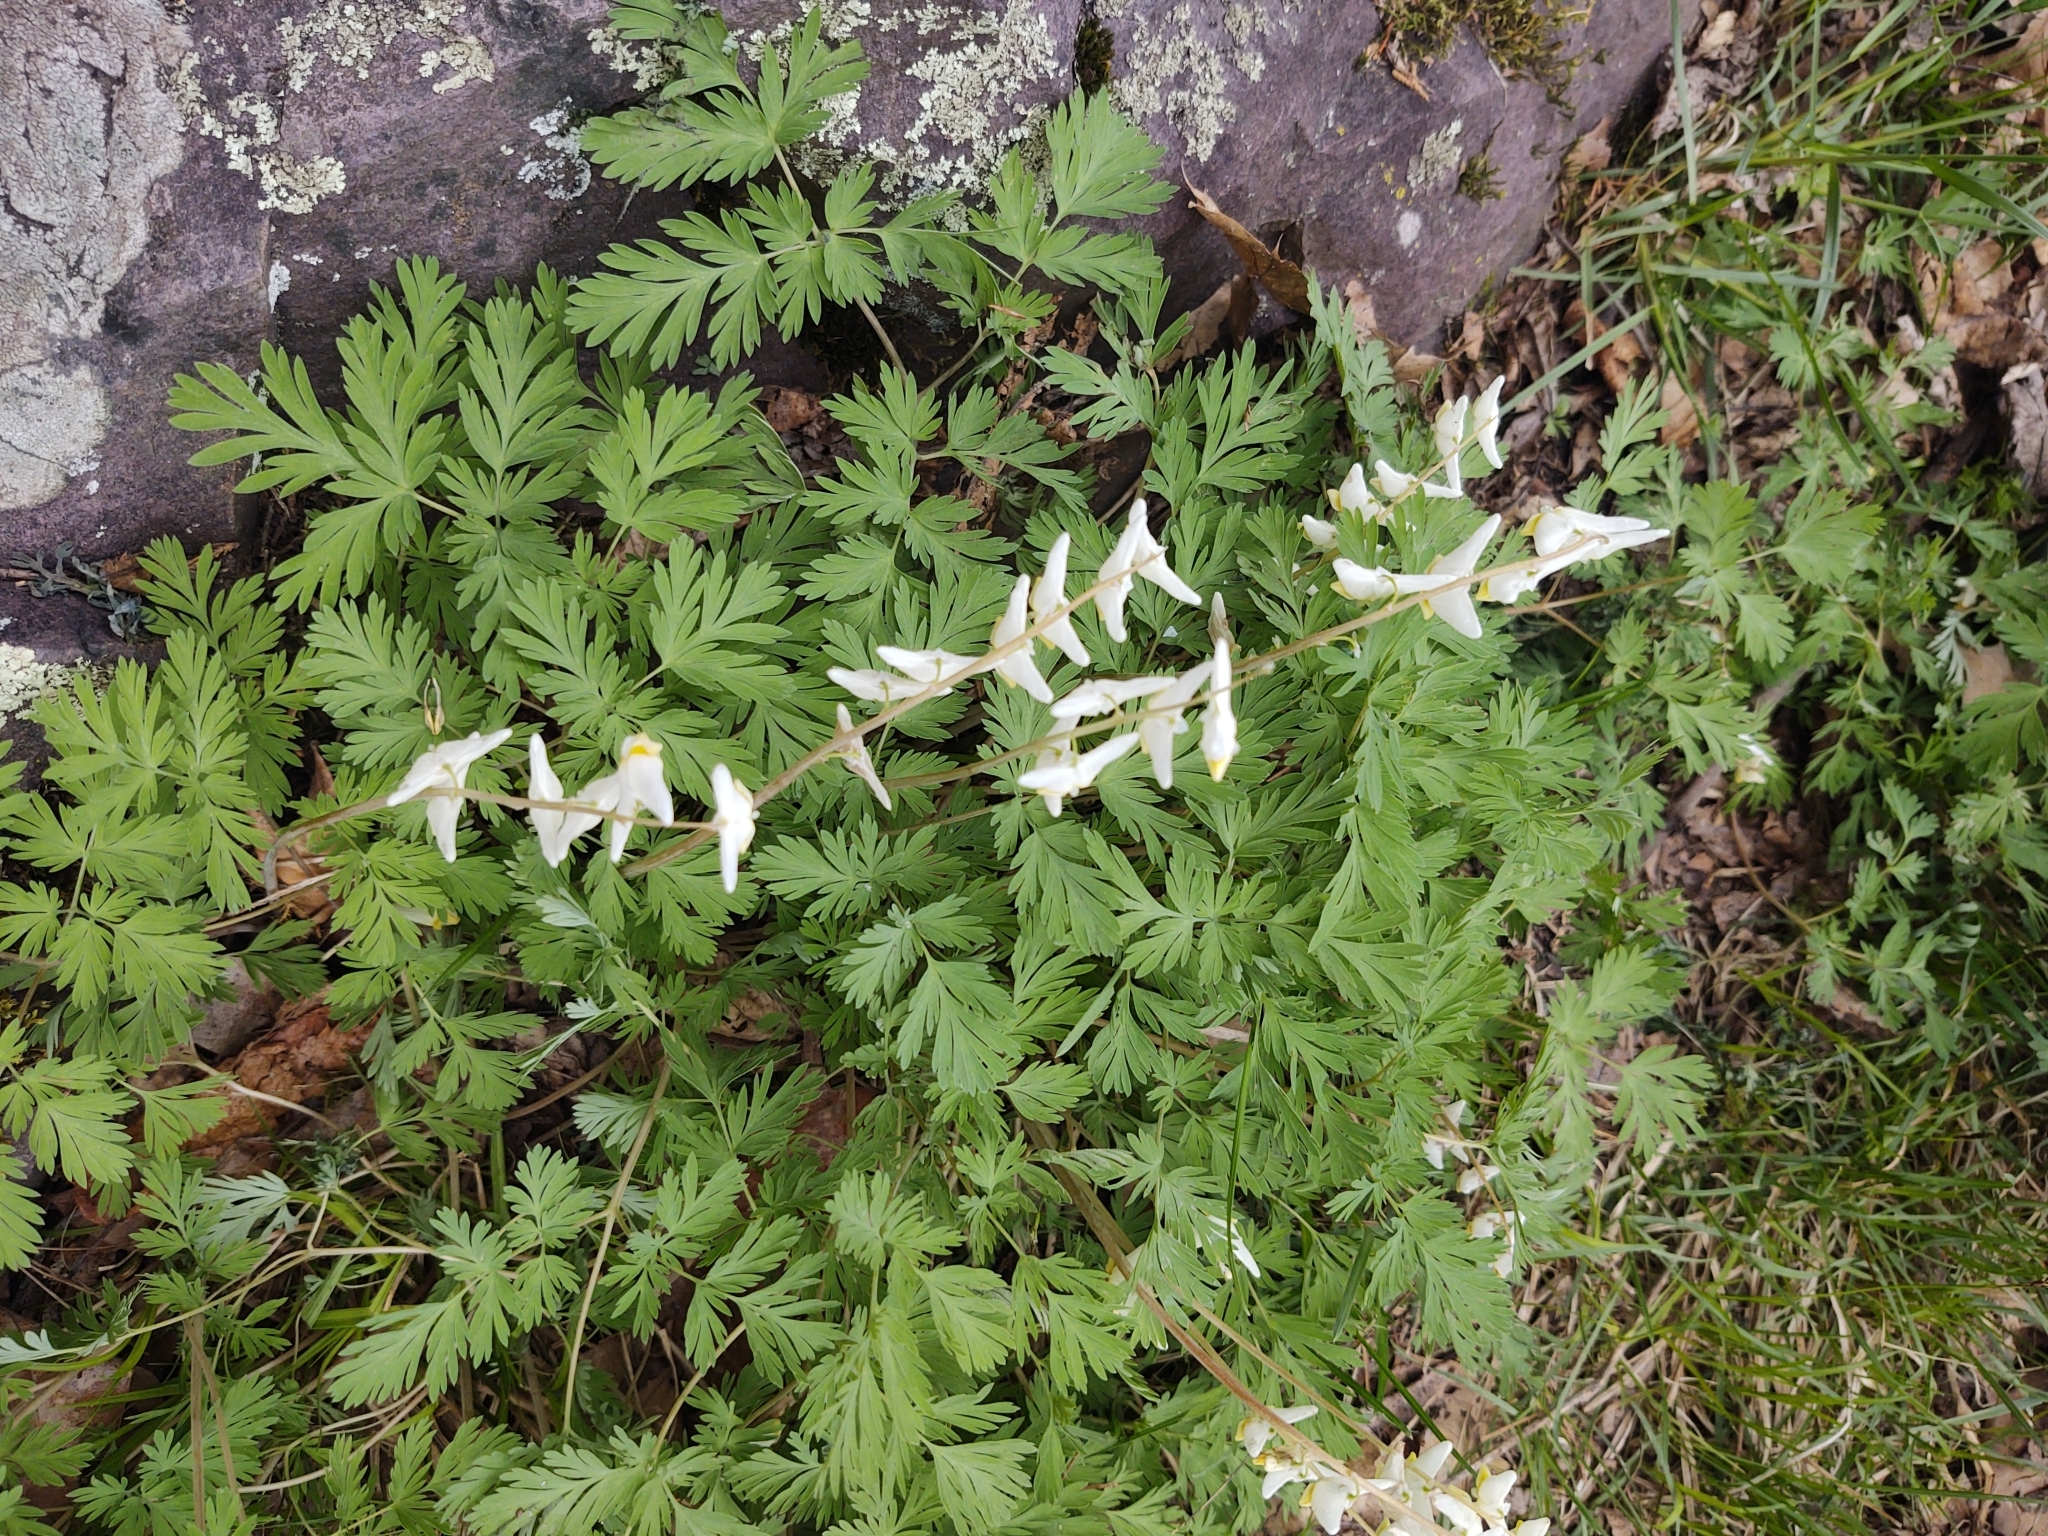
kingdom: Plantae
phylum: Tracheophyta
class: Magnoliopsida
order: Ranunculales
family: Papaveraceae
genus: Dicentra
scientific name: Dicentra cucullaria
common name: Dutchman's breeches
